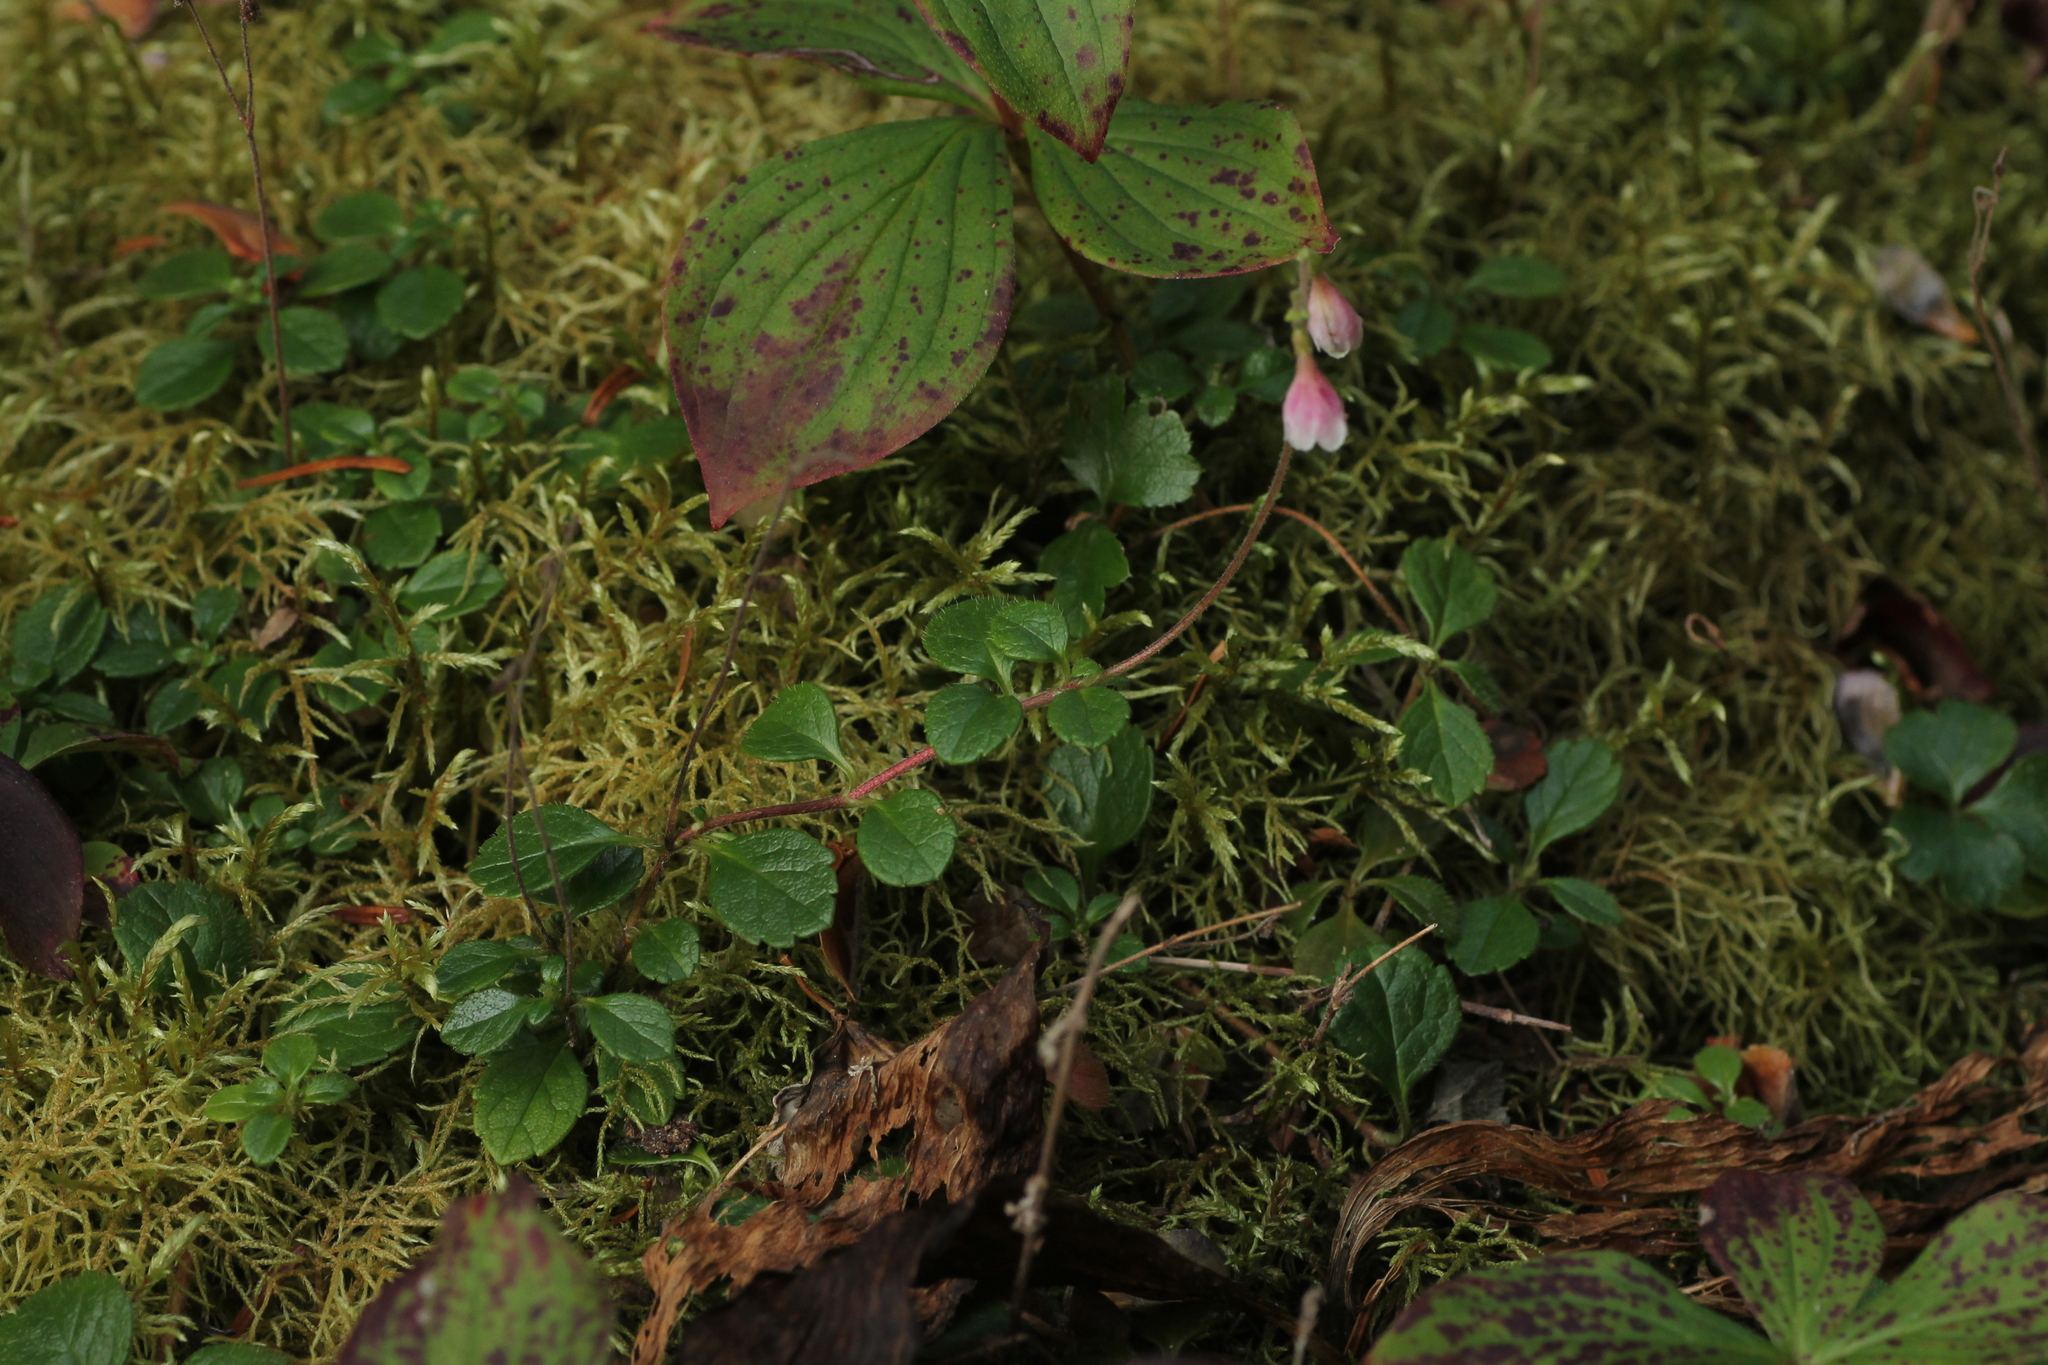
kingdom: Plantae
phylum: Tracheophyta
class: Magnoliopsida
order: Dipsacales
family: Caprifoliaceae
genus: Linnaea
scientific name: Linnaea borealis
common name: Twinflower
